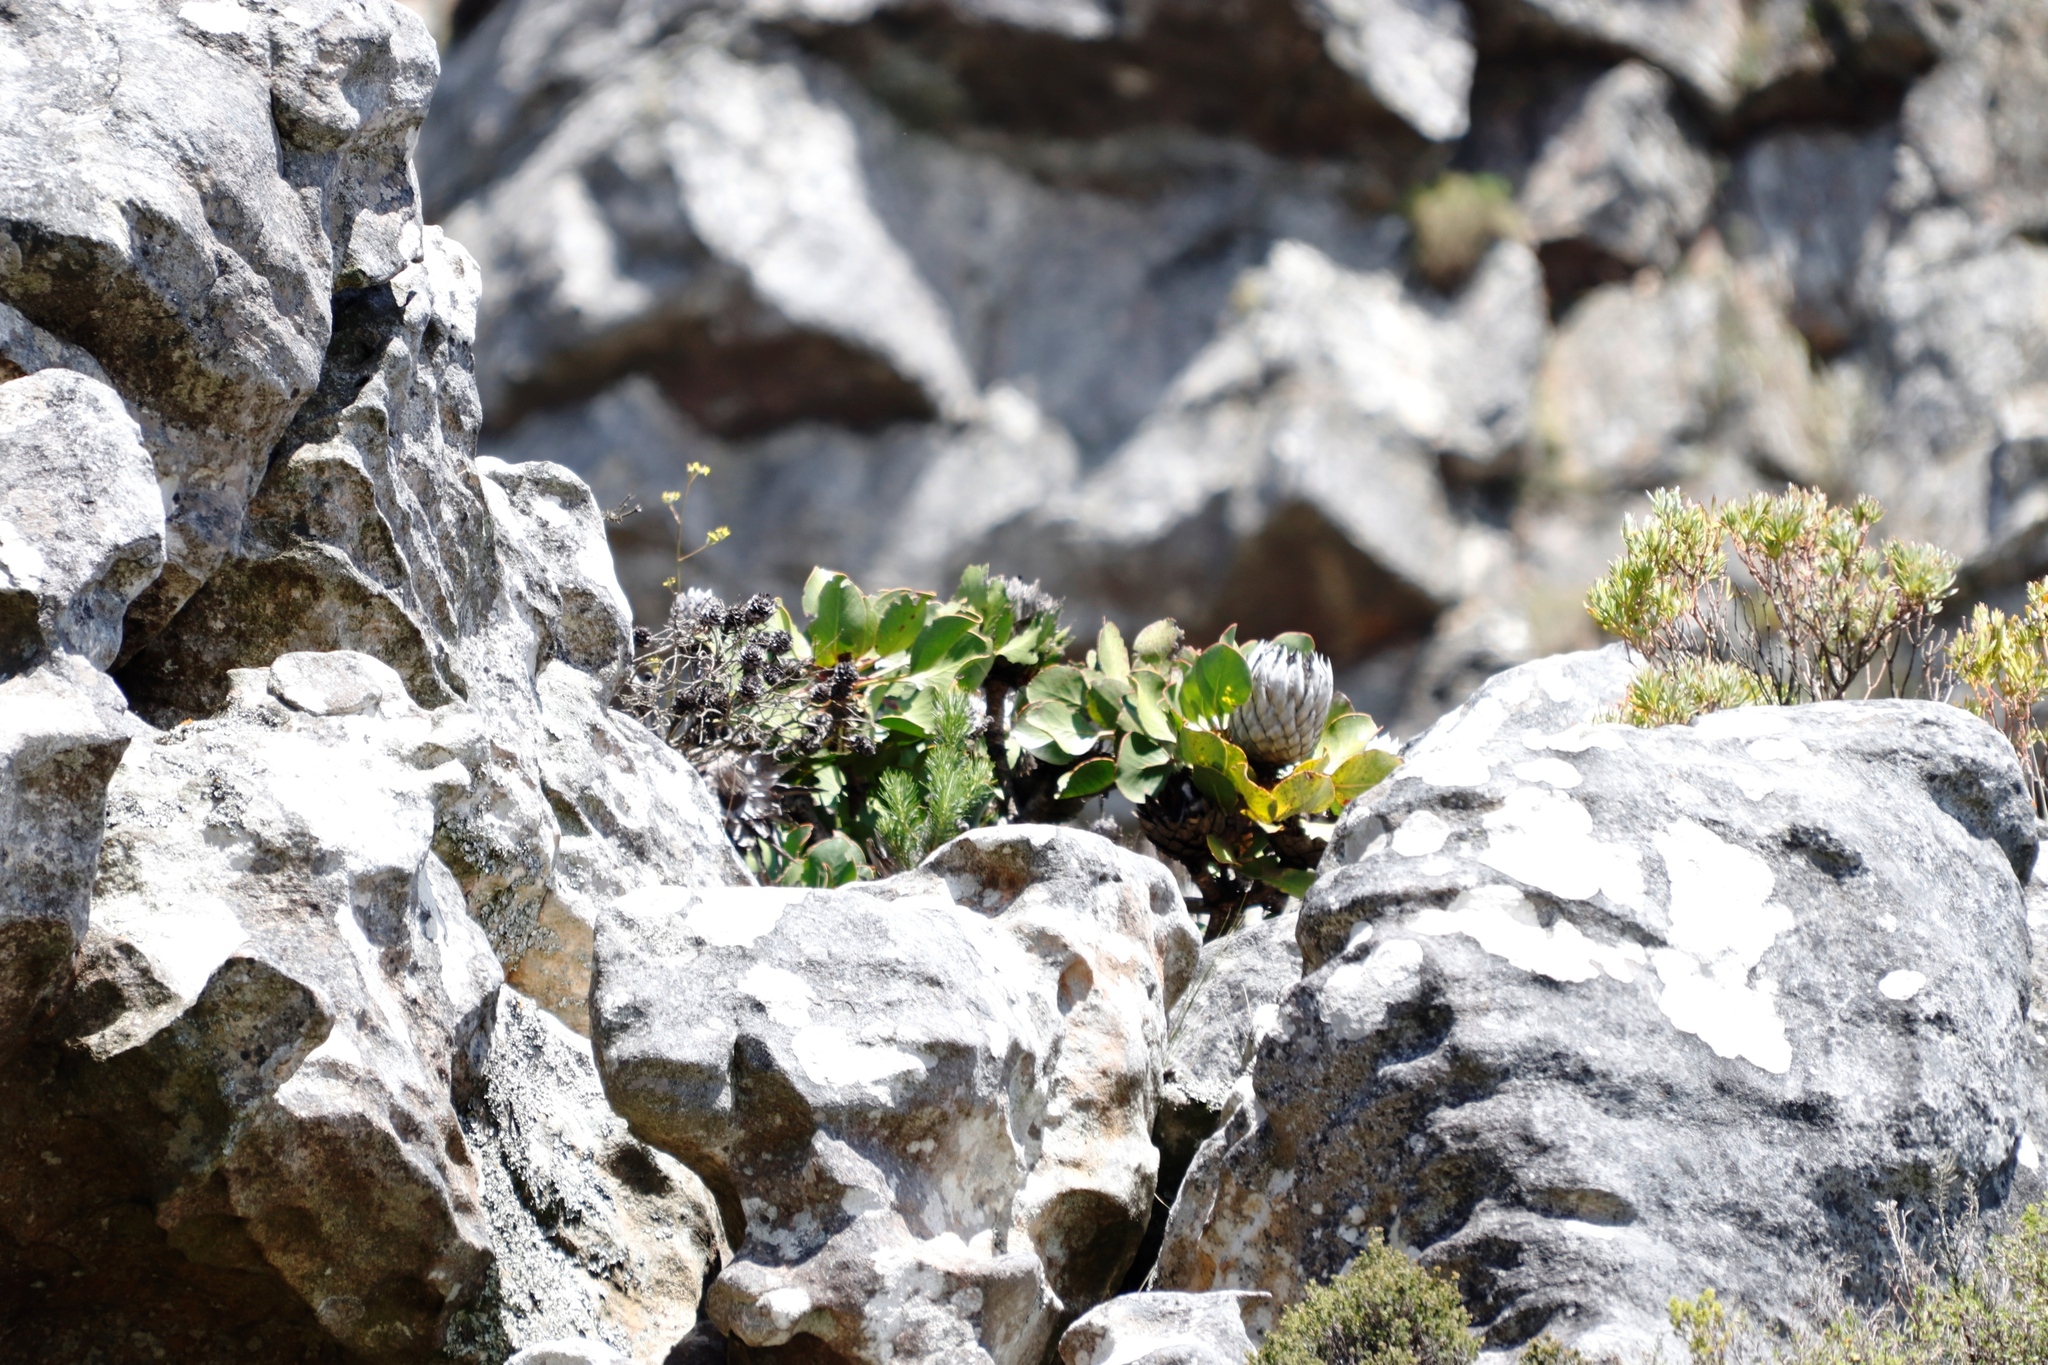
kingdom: Plantae
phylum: Tracheophyta
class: Magnoliopsida
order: Proteales
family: Proteaceae
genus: Protea
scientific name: Protea cynaroides
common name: King protea
